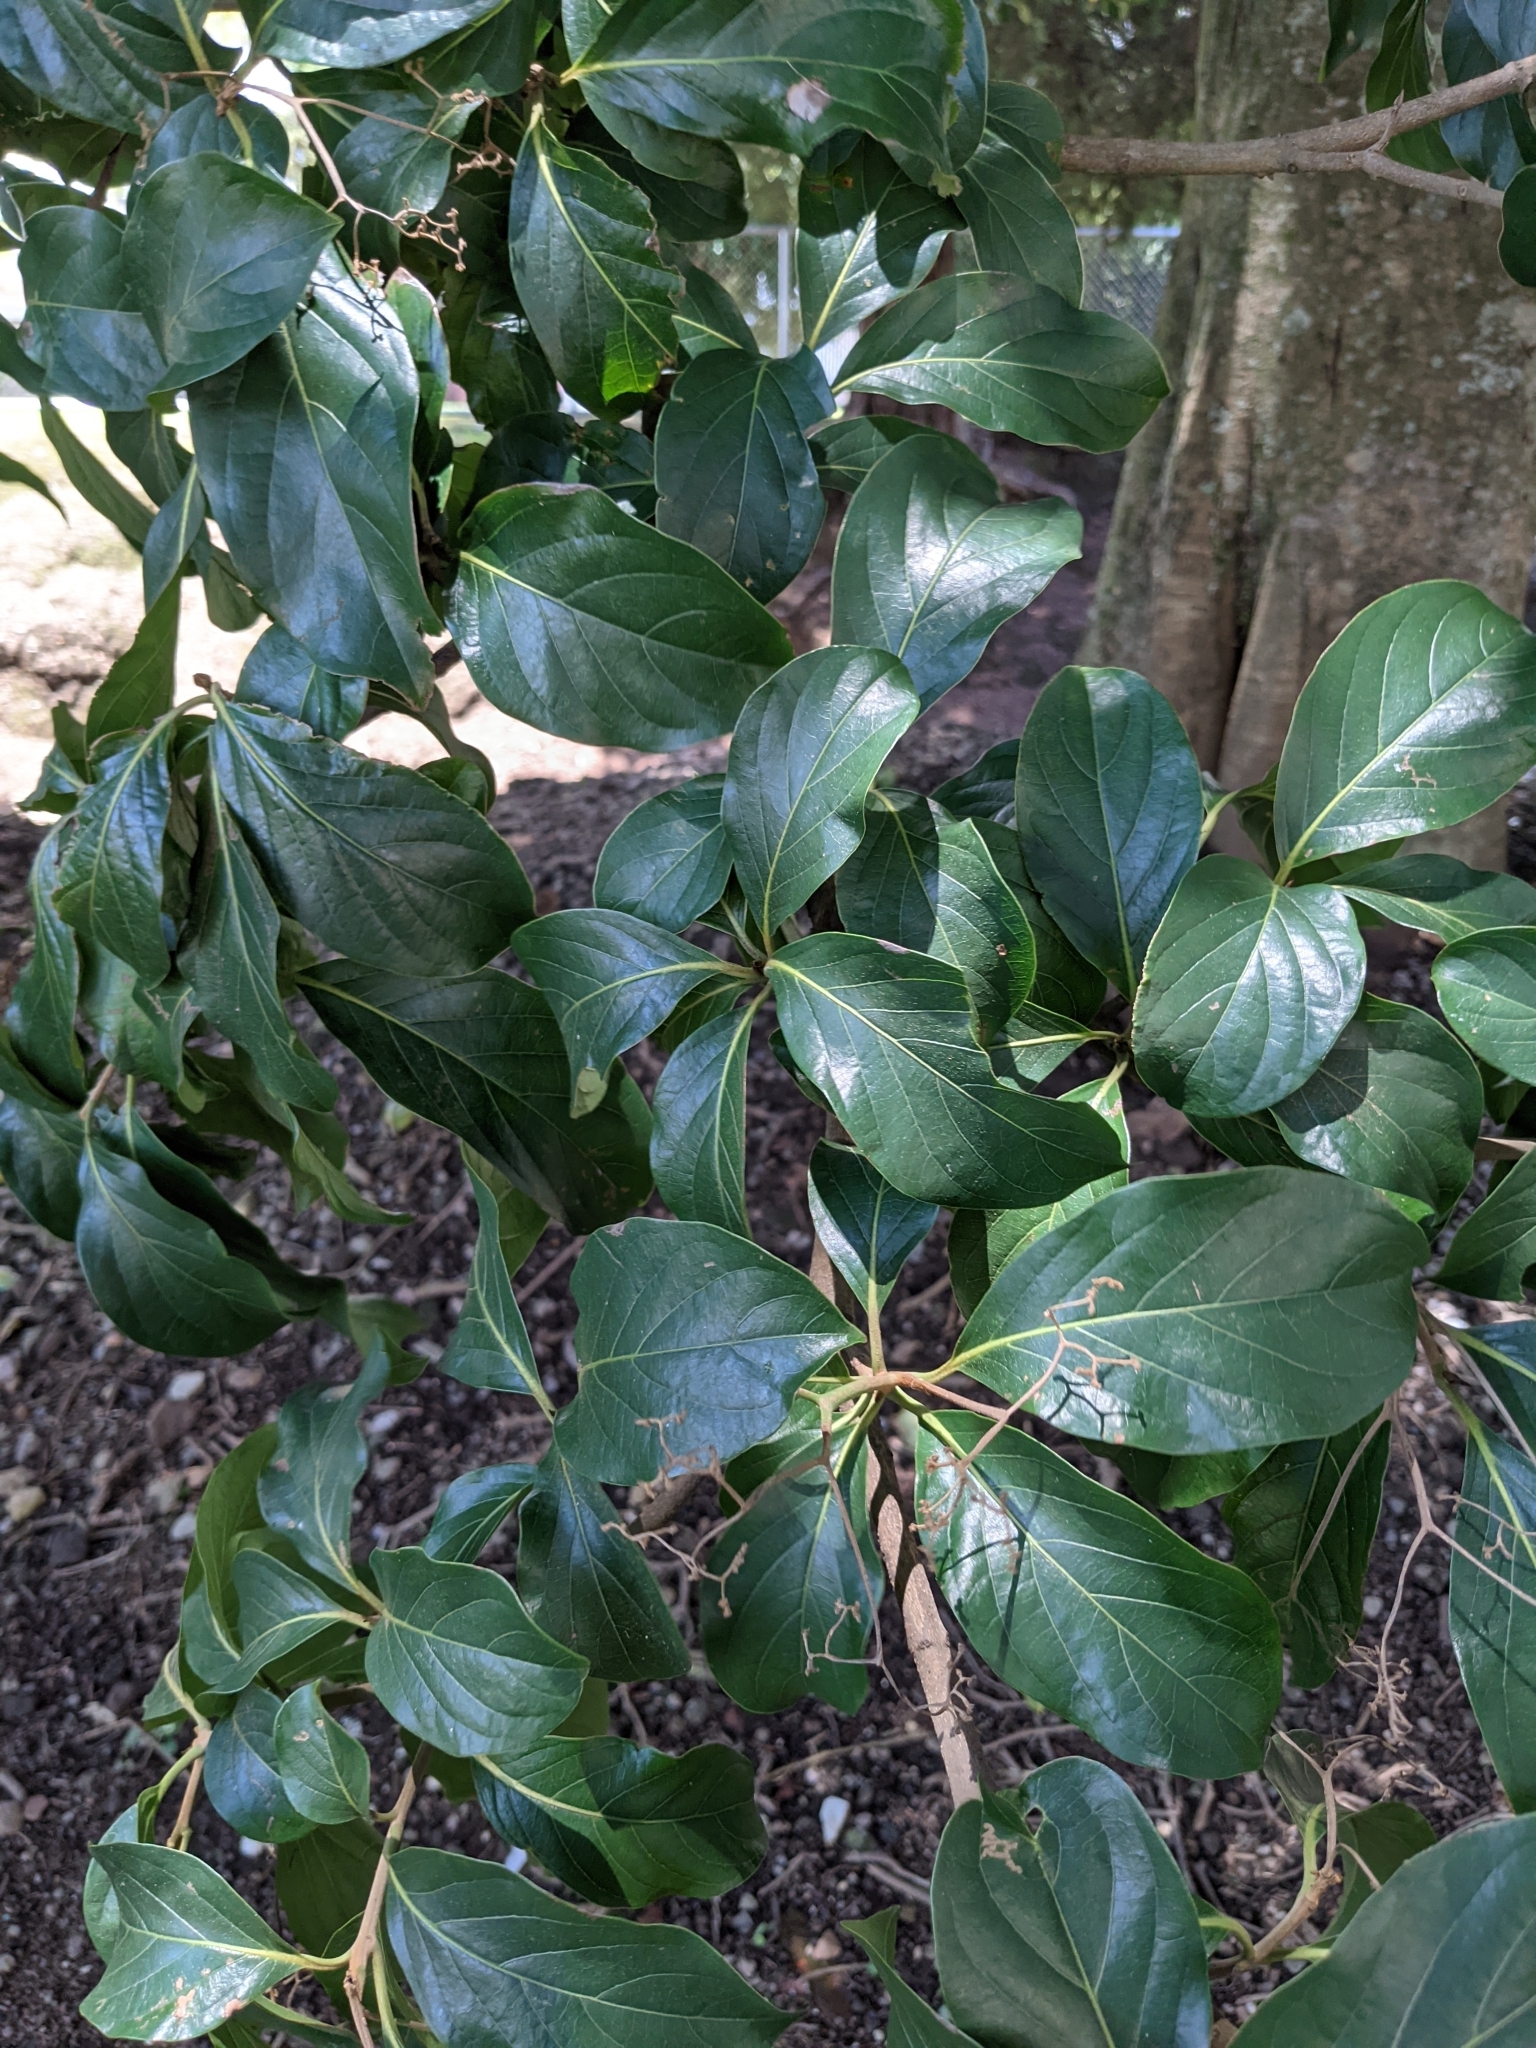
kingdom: Plantae
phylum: Tracheophyta
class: Magnoliopsida
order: Boraginales
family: Cordiaceae
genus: Cordia
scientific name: Cordia eriostigma
